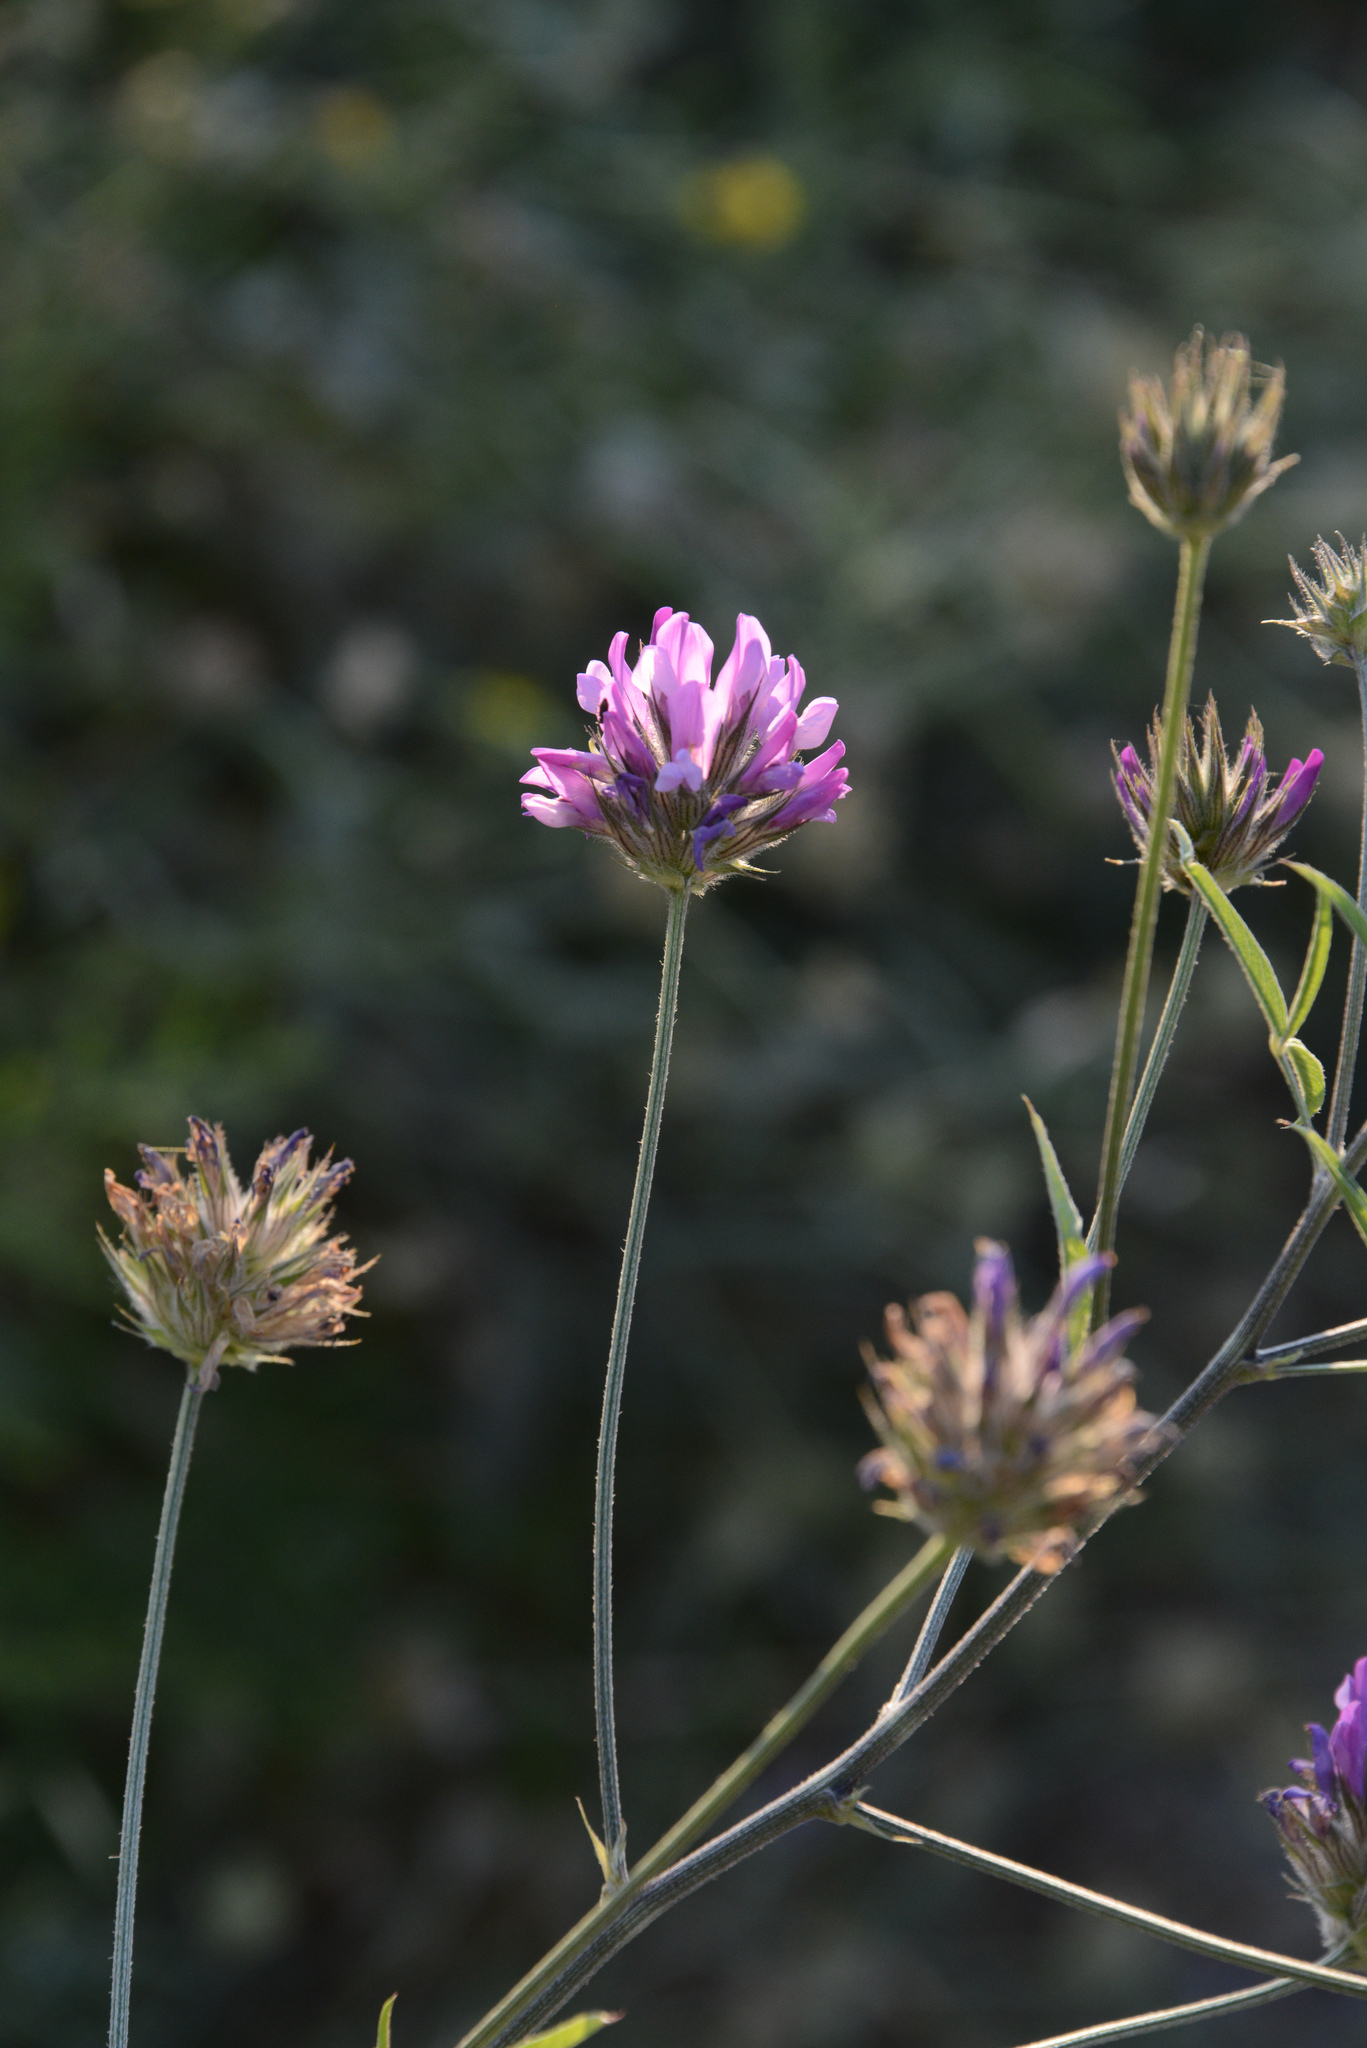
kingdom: Plantae
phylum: Tracheophyta
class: Magnoliopsida
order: Fabales
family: Fabaceae
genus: Bituminaria
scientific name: Bituminaria bituminosa
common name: Arabian pea
